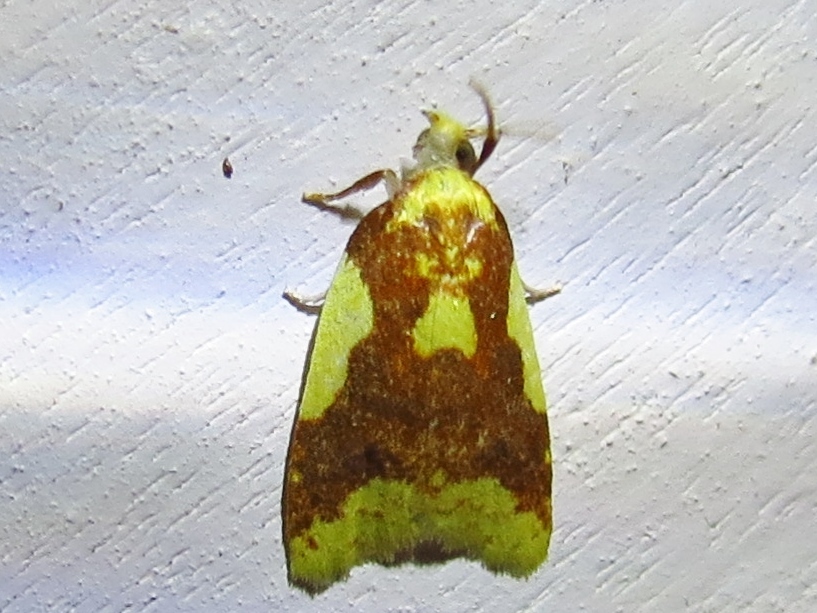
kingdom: Animalia
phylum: Arthropoda
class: Insecta
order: Lepidoptera
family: Tortricidae
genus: Sparganothis
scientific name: Sparganothis pulcherrimana
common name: Beautiful sparganothis
